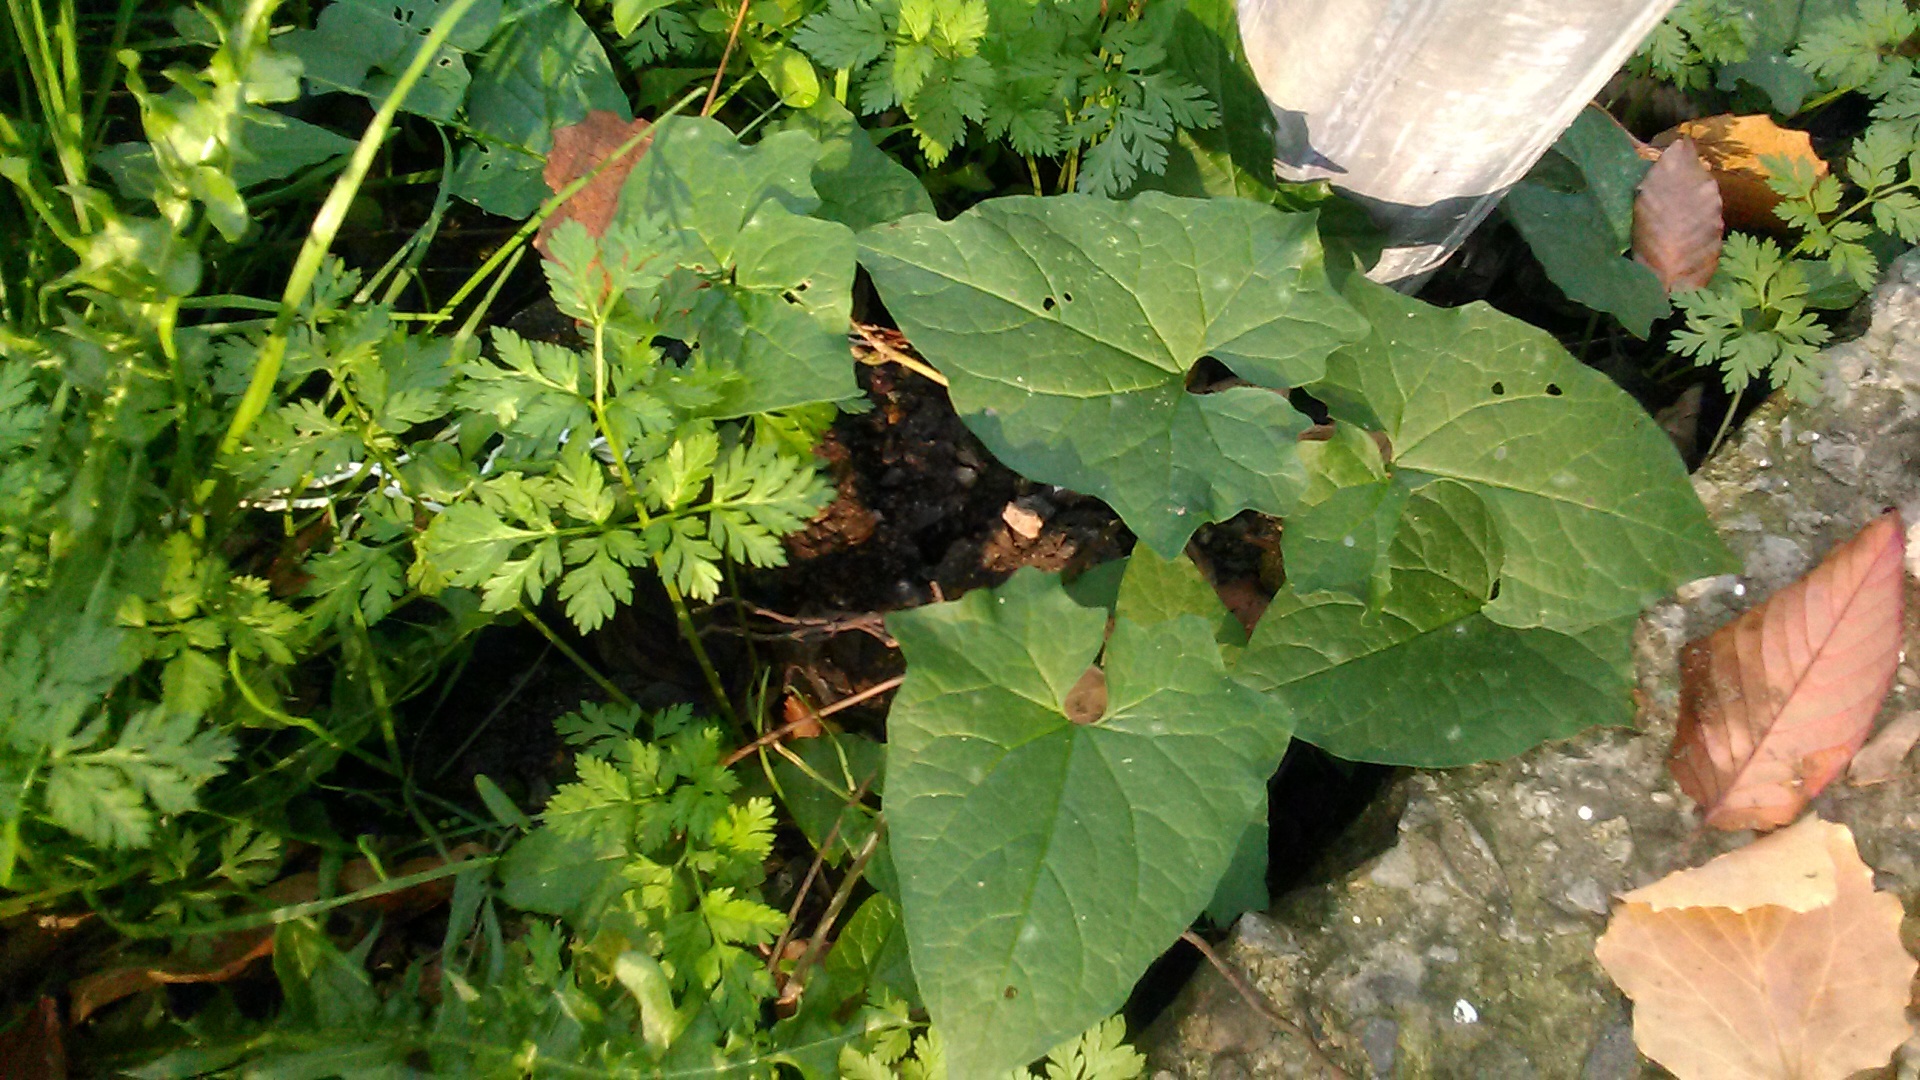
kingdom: Plantae
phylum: Tracheophyta
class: Magnoliopsida
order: Solanales
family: Convolvulaceae
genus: Calystegia
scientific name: Calystegia silvatica
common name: Large bindweed
